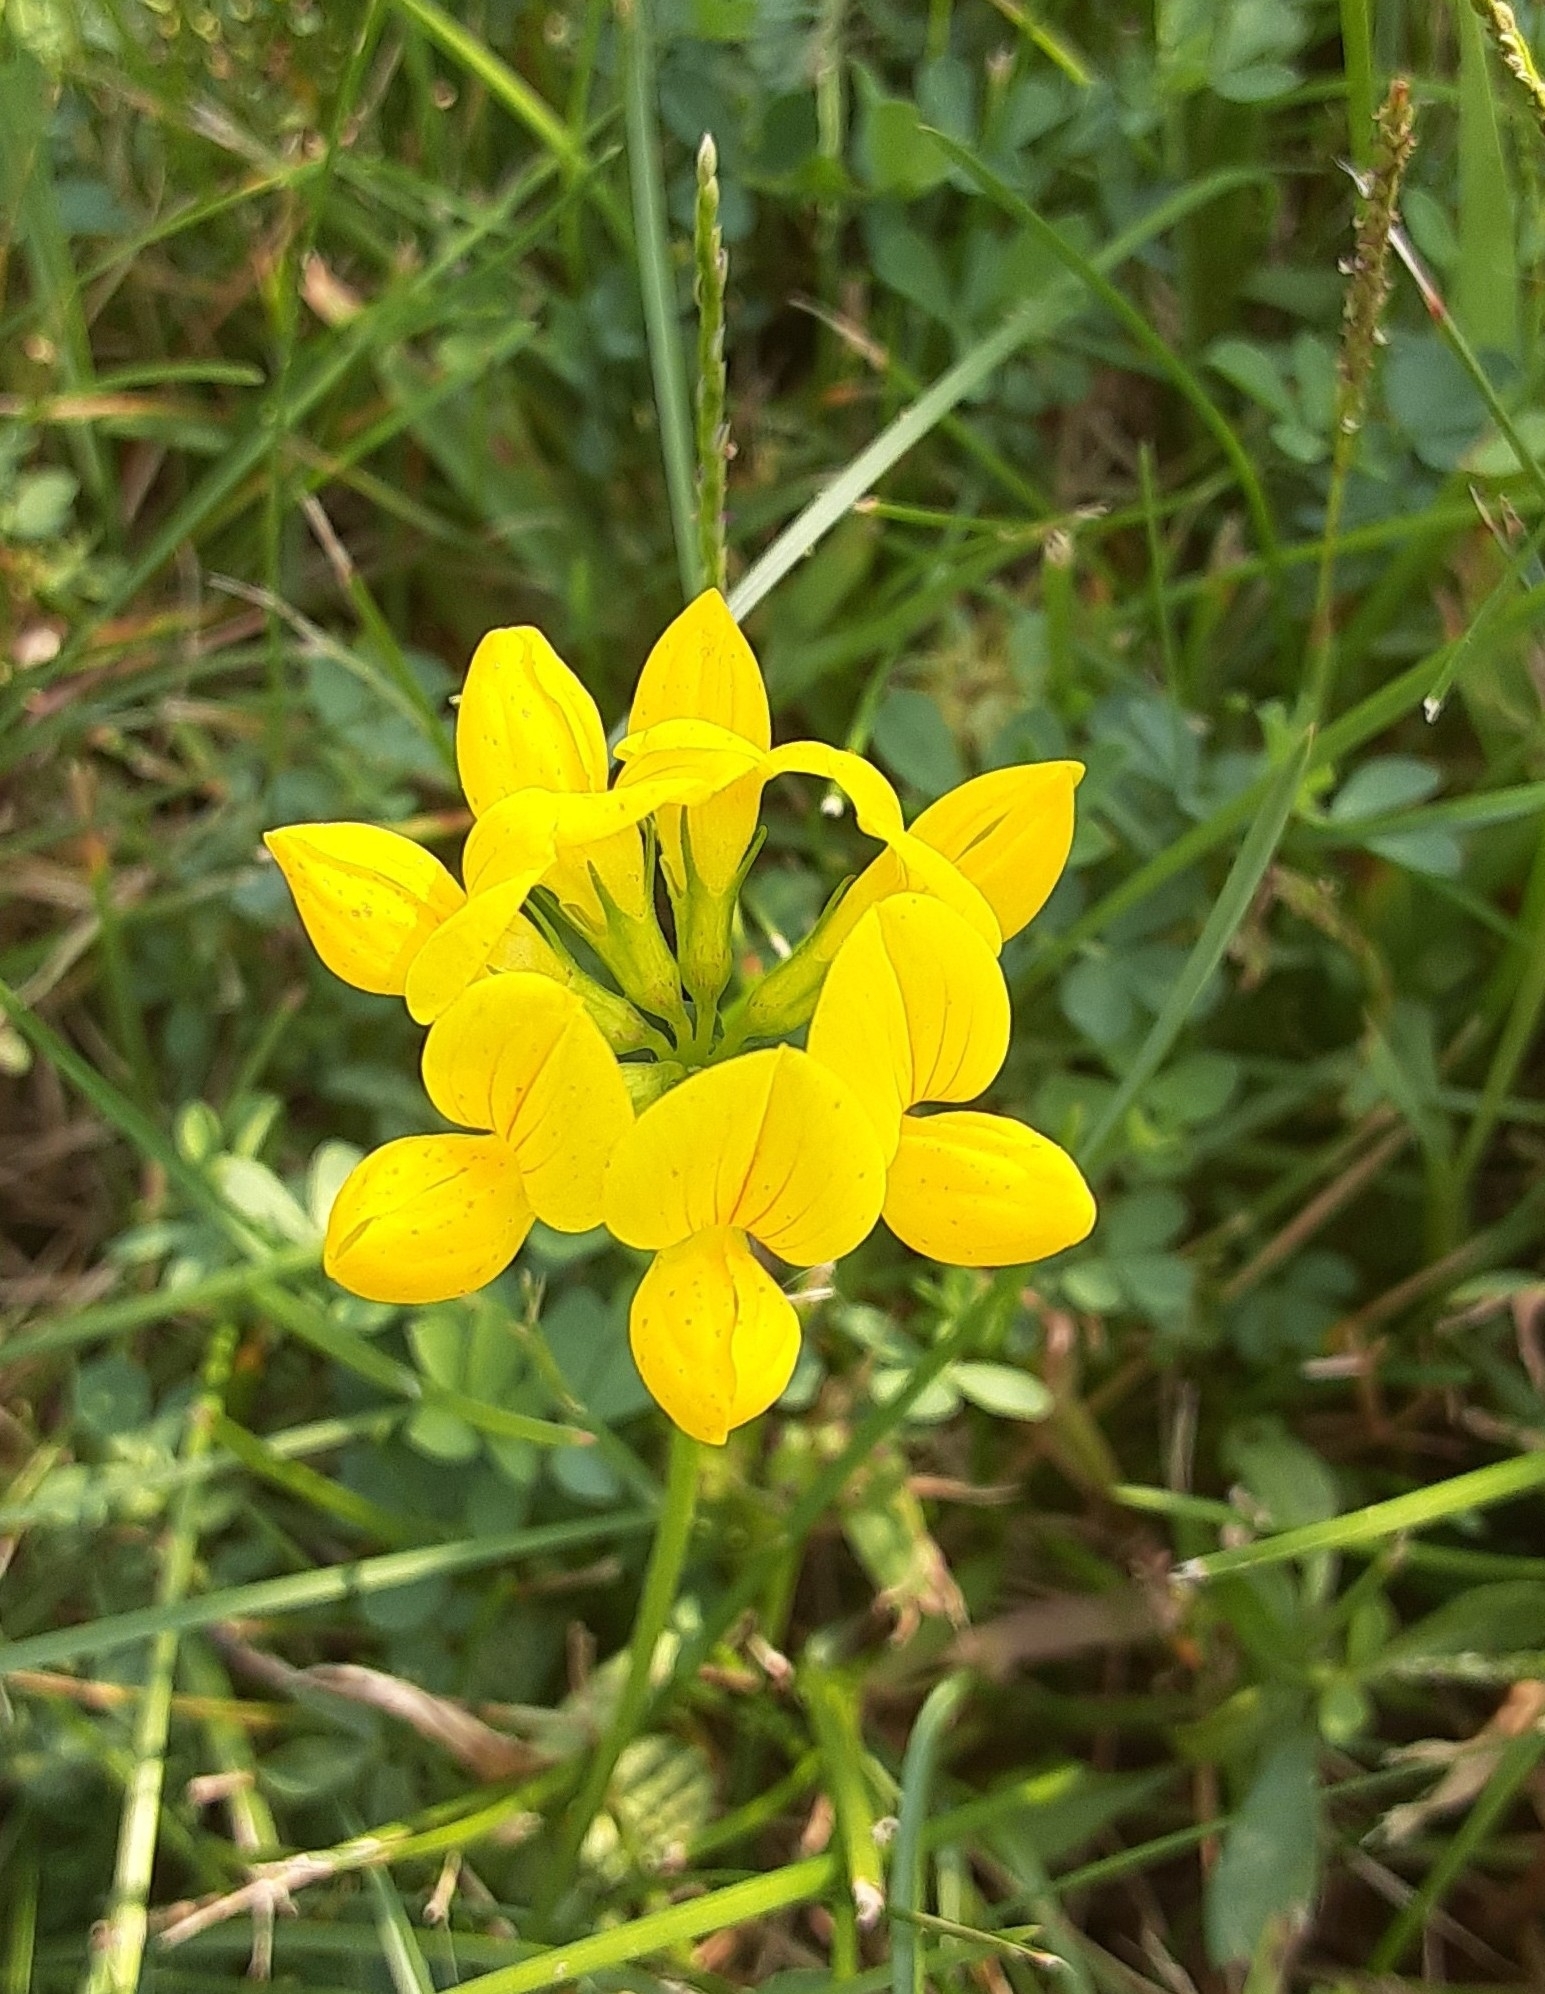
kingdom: Plantae
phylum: Tracheophyta
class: Magnoliopsida
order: Fabales
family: Fabaceae
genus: Lotus
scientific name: Lotus corniculatus
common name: Common bird's-foot-trefoil
